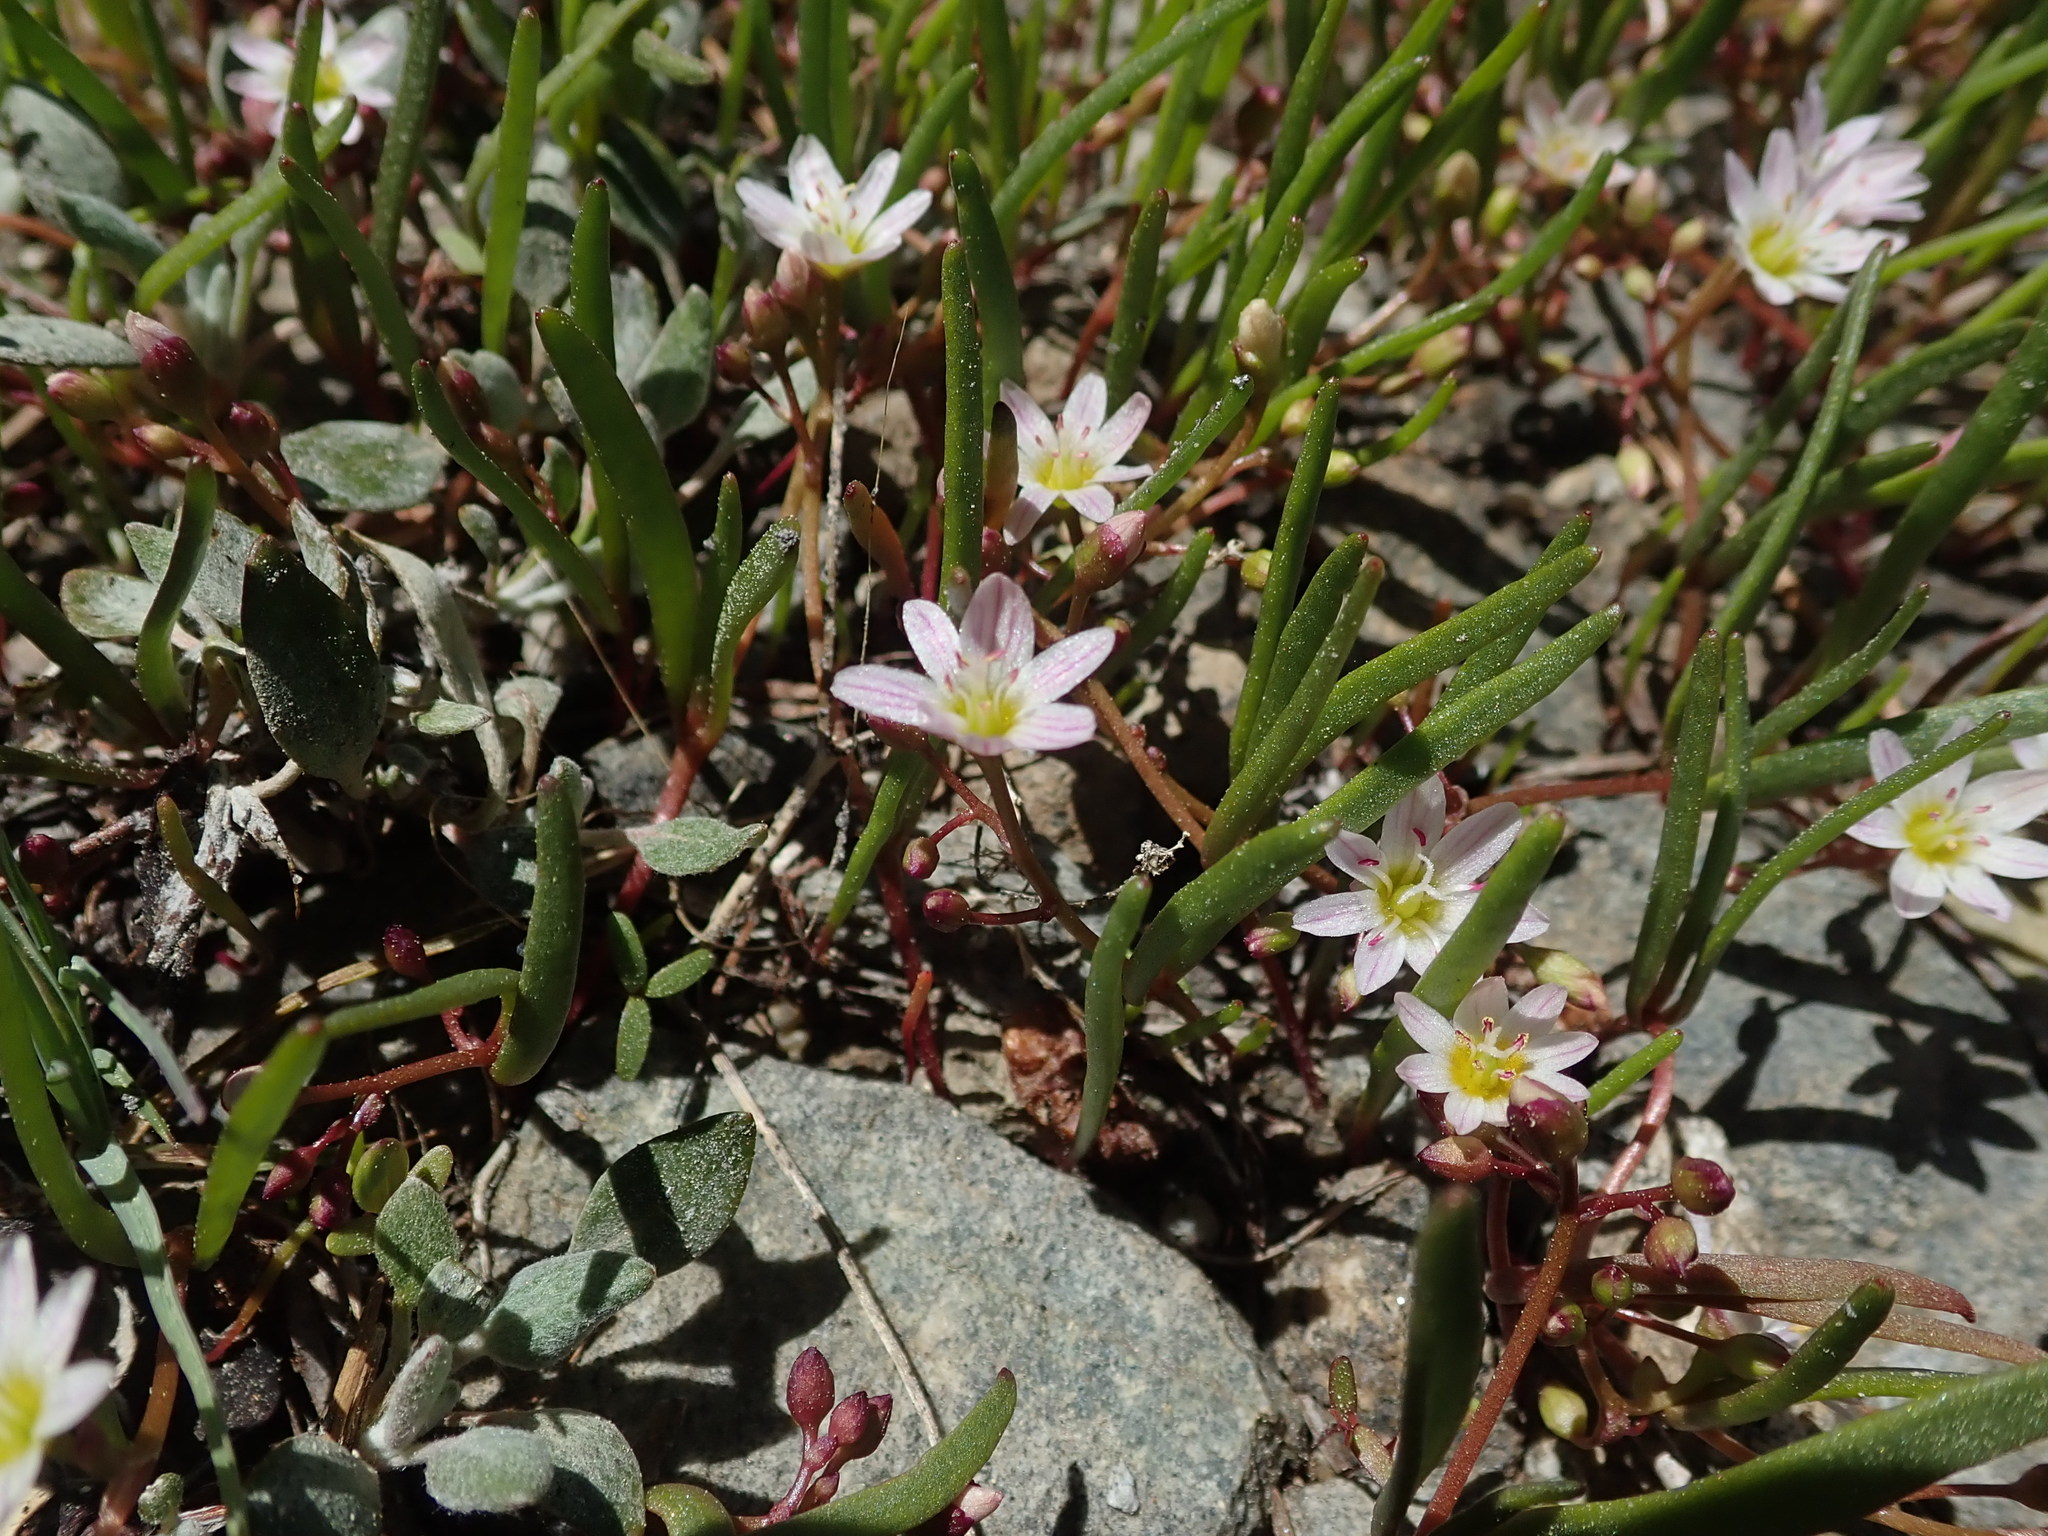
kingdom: Plantae
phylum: Tracheophyta
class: Magnoliopsida
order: Caryophyllales
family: Montiaceae
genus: Claytonia
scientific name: Claytonia lanceolata
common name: Western spring-beauty
